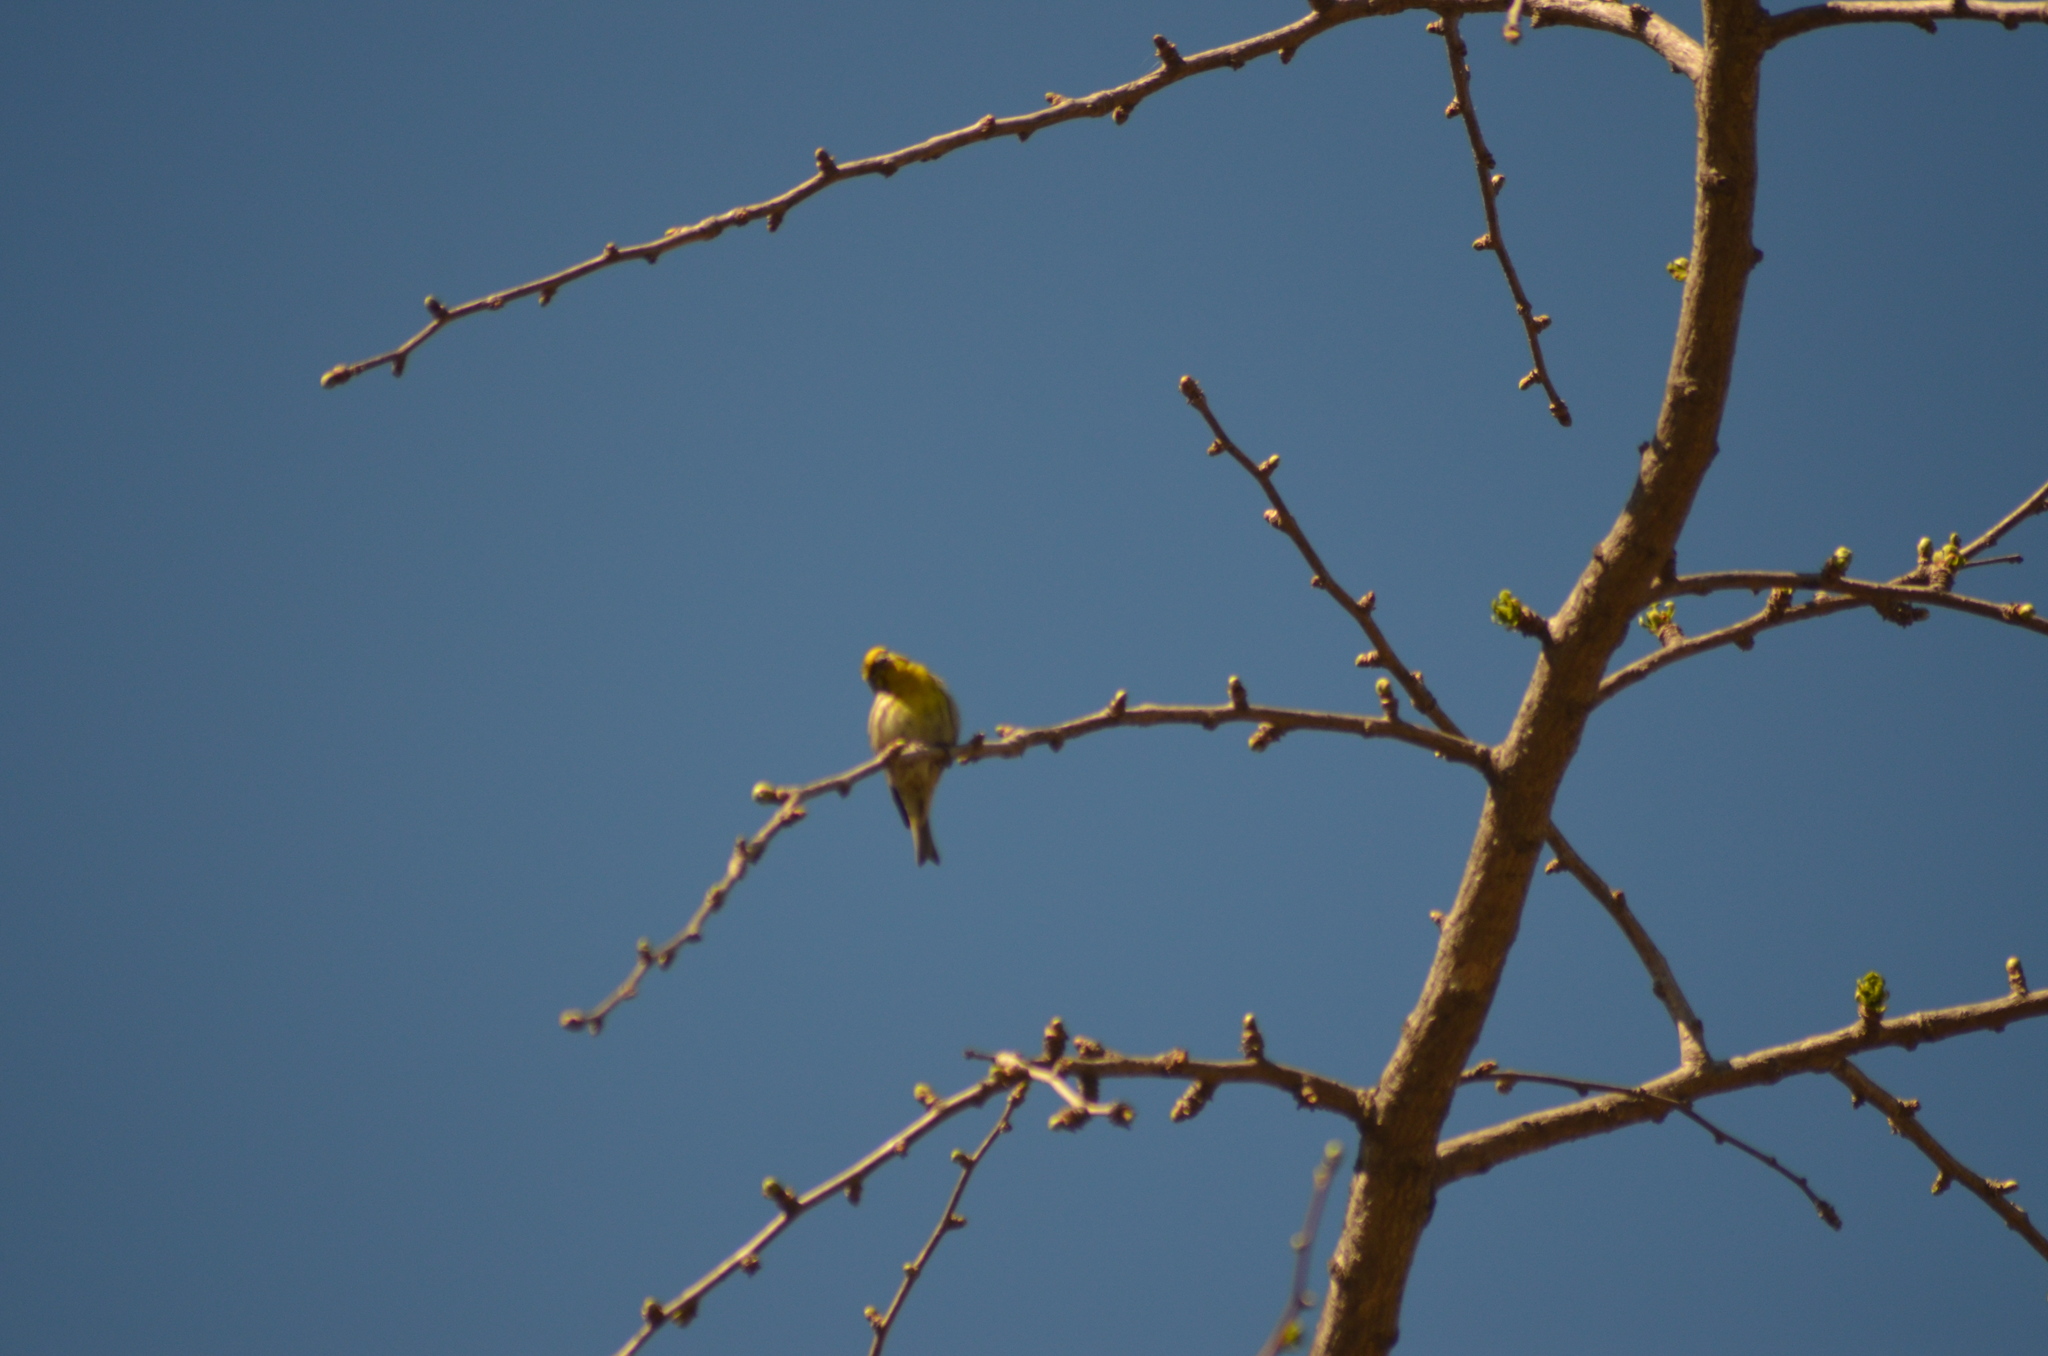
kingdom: Animalia
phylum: Chordata
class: Aves
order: Passeriformes
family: Fringillidae
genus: Serinus
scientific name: Serinus serinus
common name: European serin
